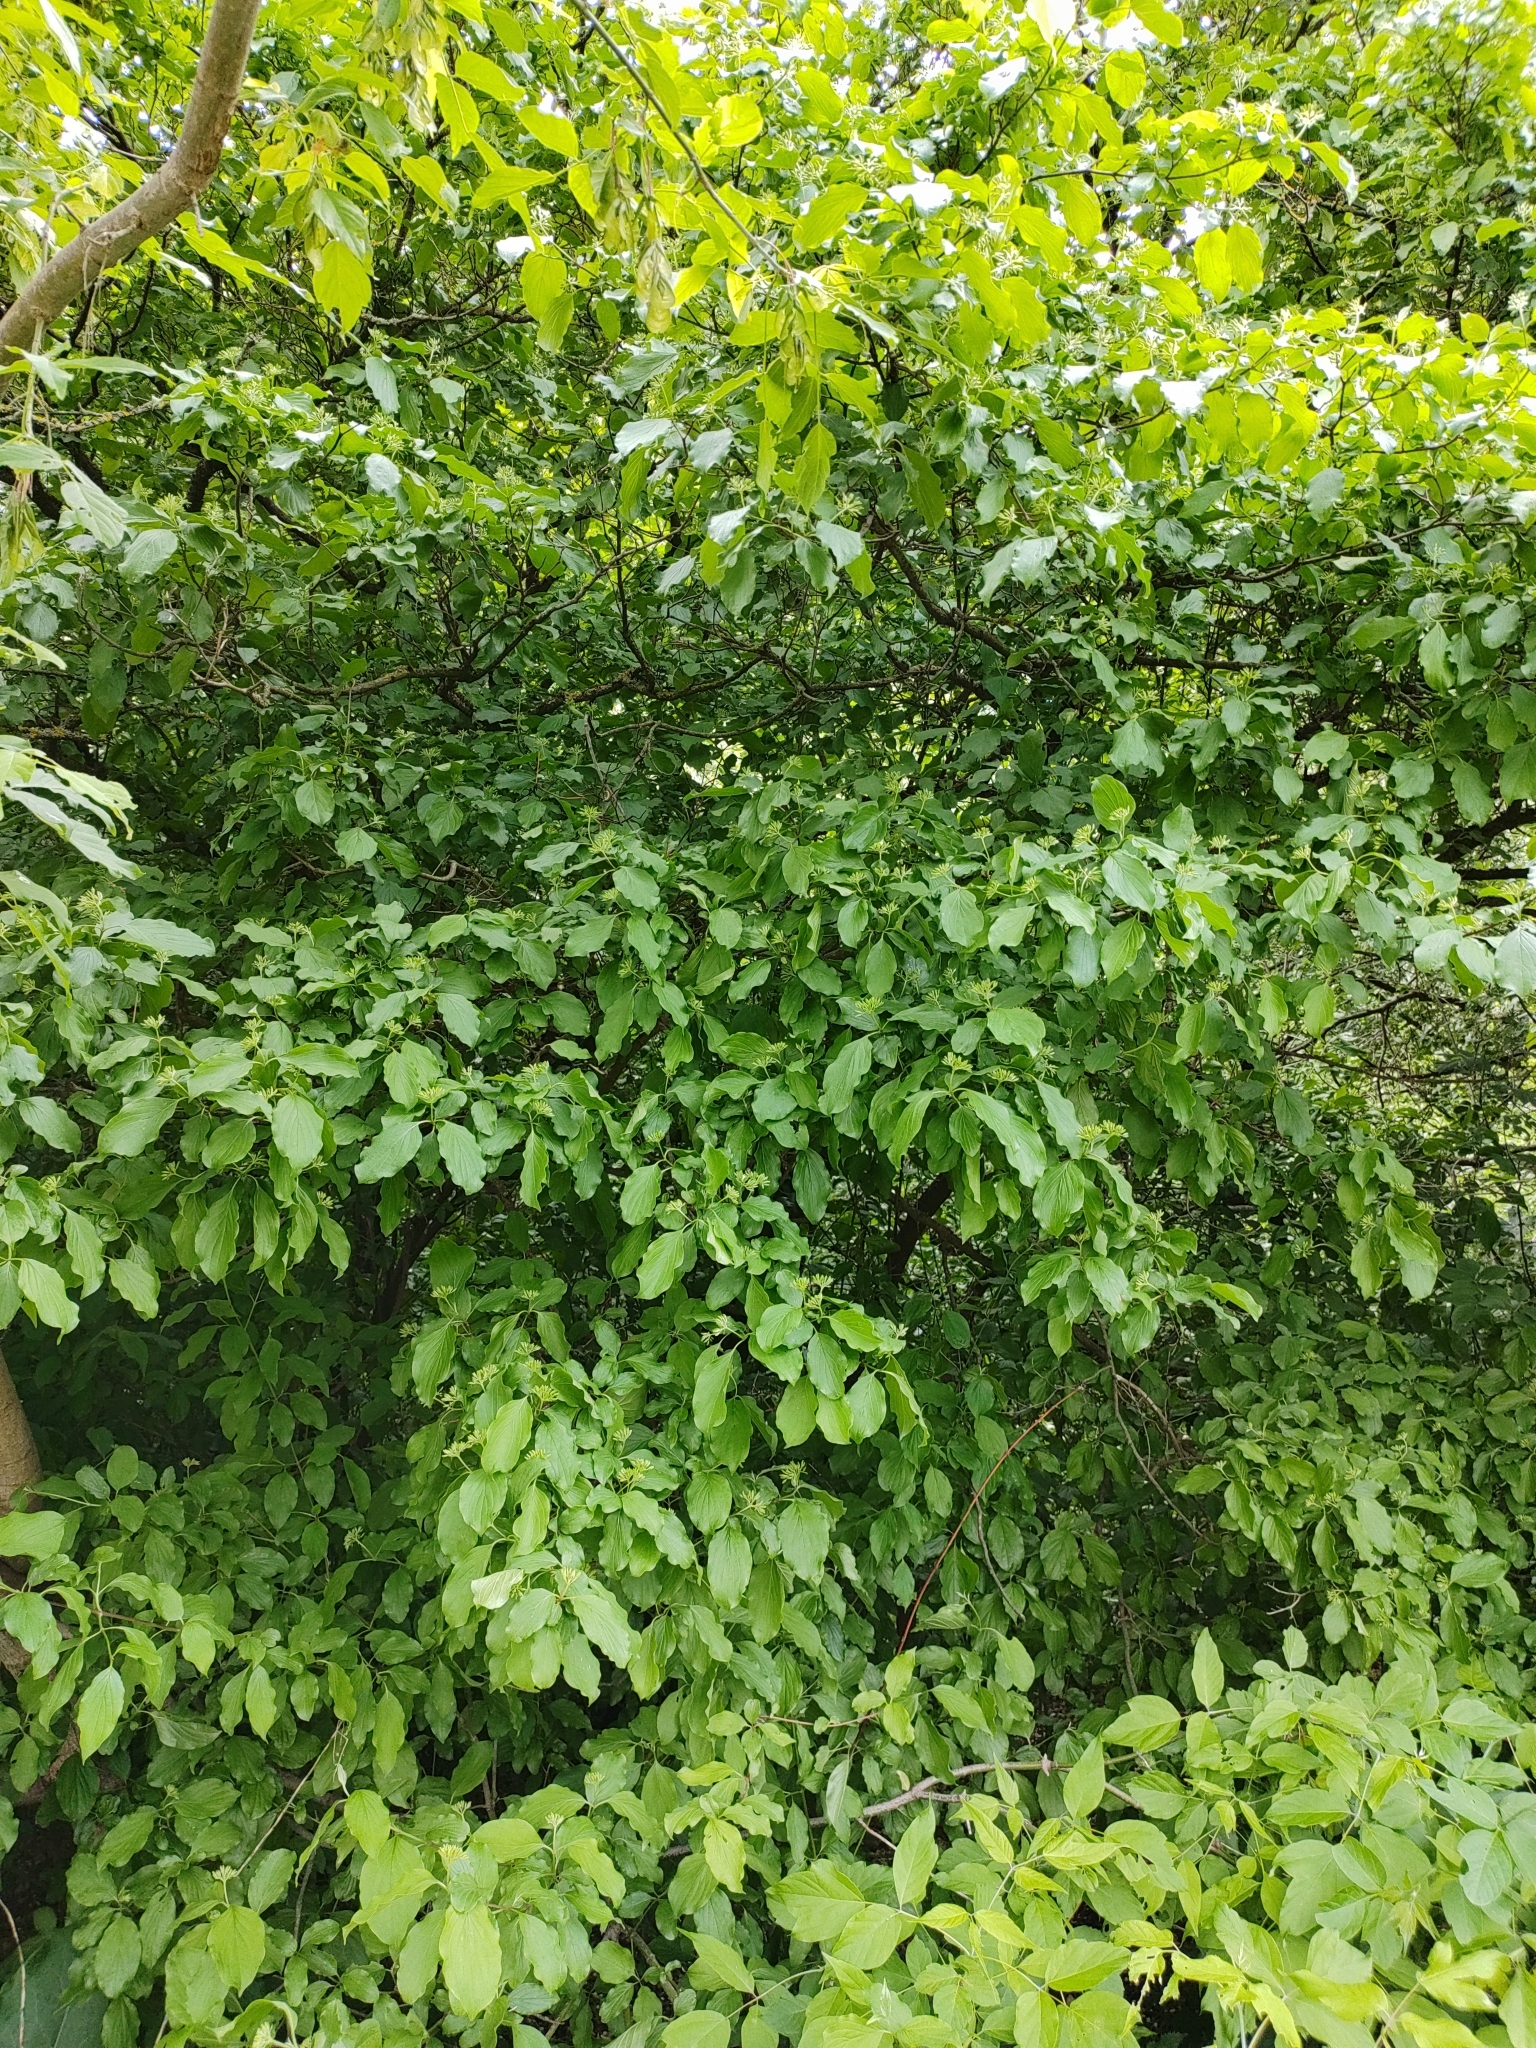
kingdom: Plantae
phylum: Tracheophyta
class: Magnoliopsida
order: Cornales
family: Cornaceae
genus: Cornus
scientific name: Cornus sanguinea
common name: Dogwood
